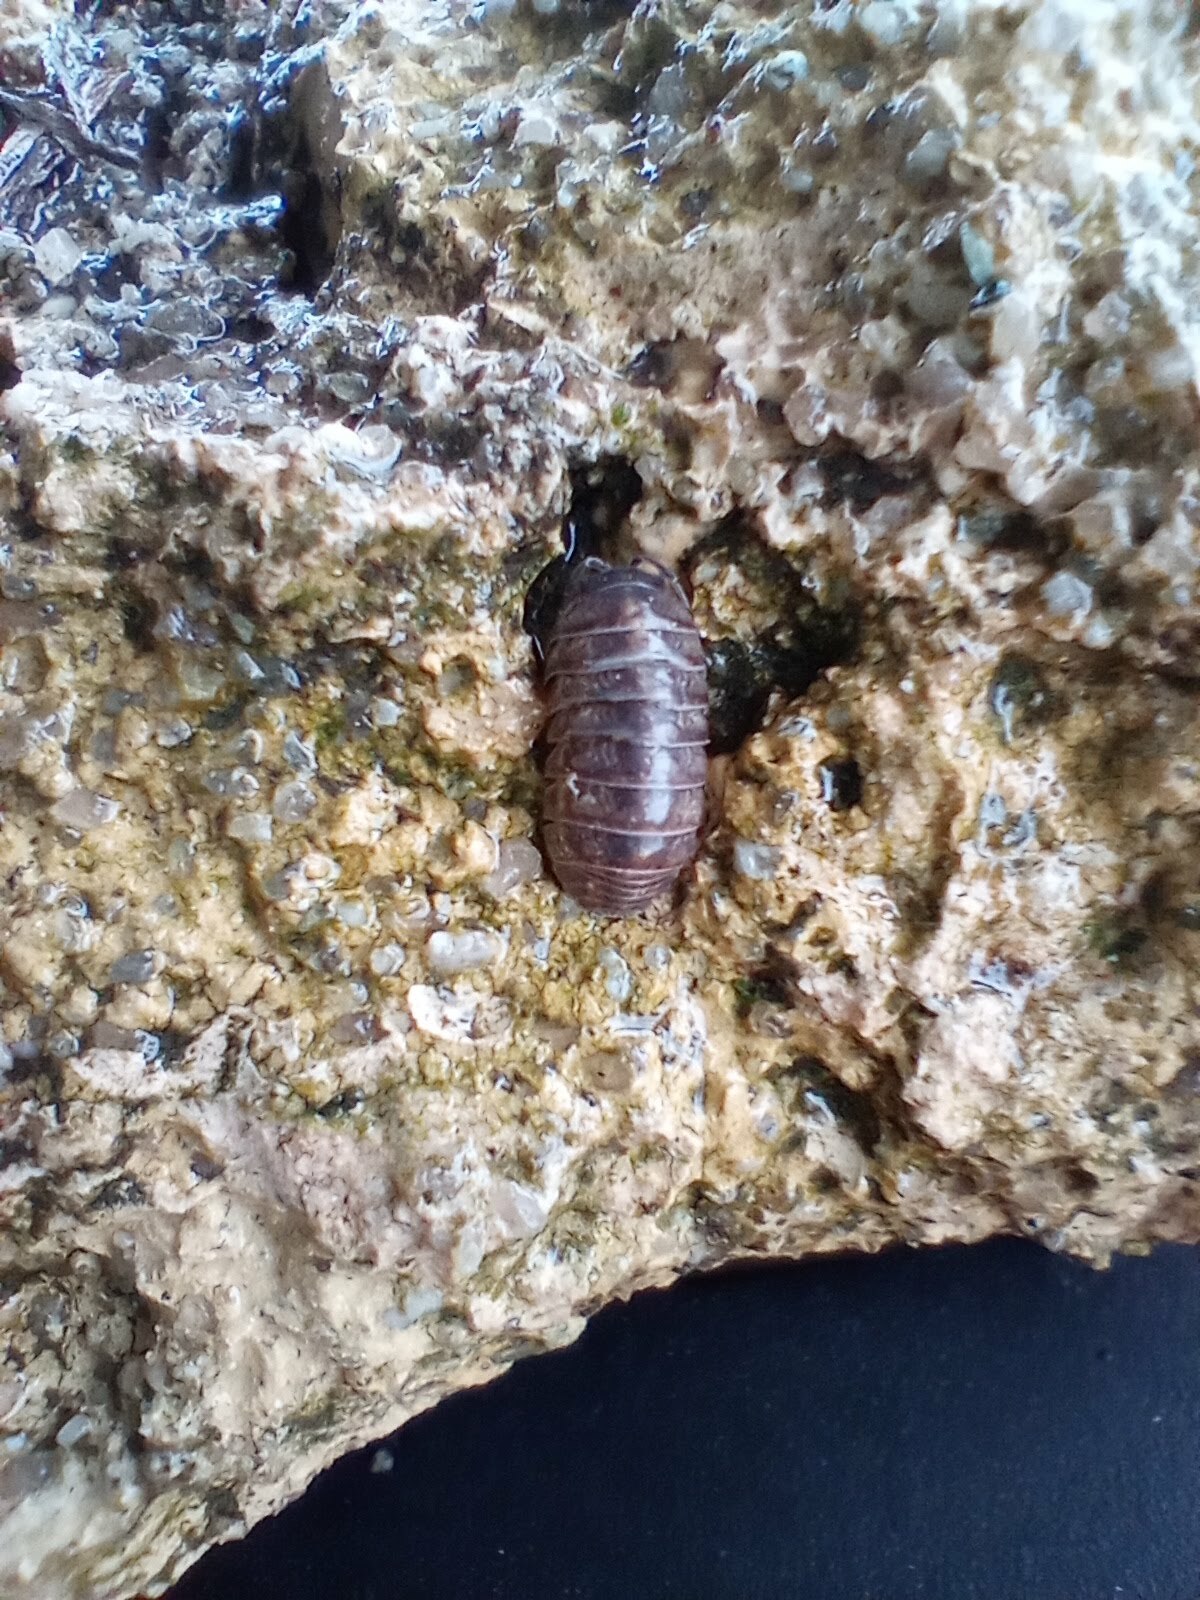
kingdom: Animalia
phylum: Arthropoda
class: Malacostraca
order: Isopoda
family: Armadillidiidae
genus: Armadillidium
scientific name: Armadillidium vulgare
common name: Common pill woodlouse
